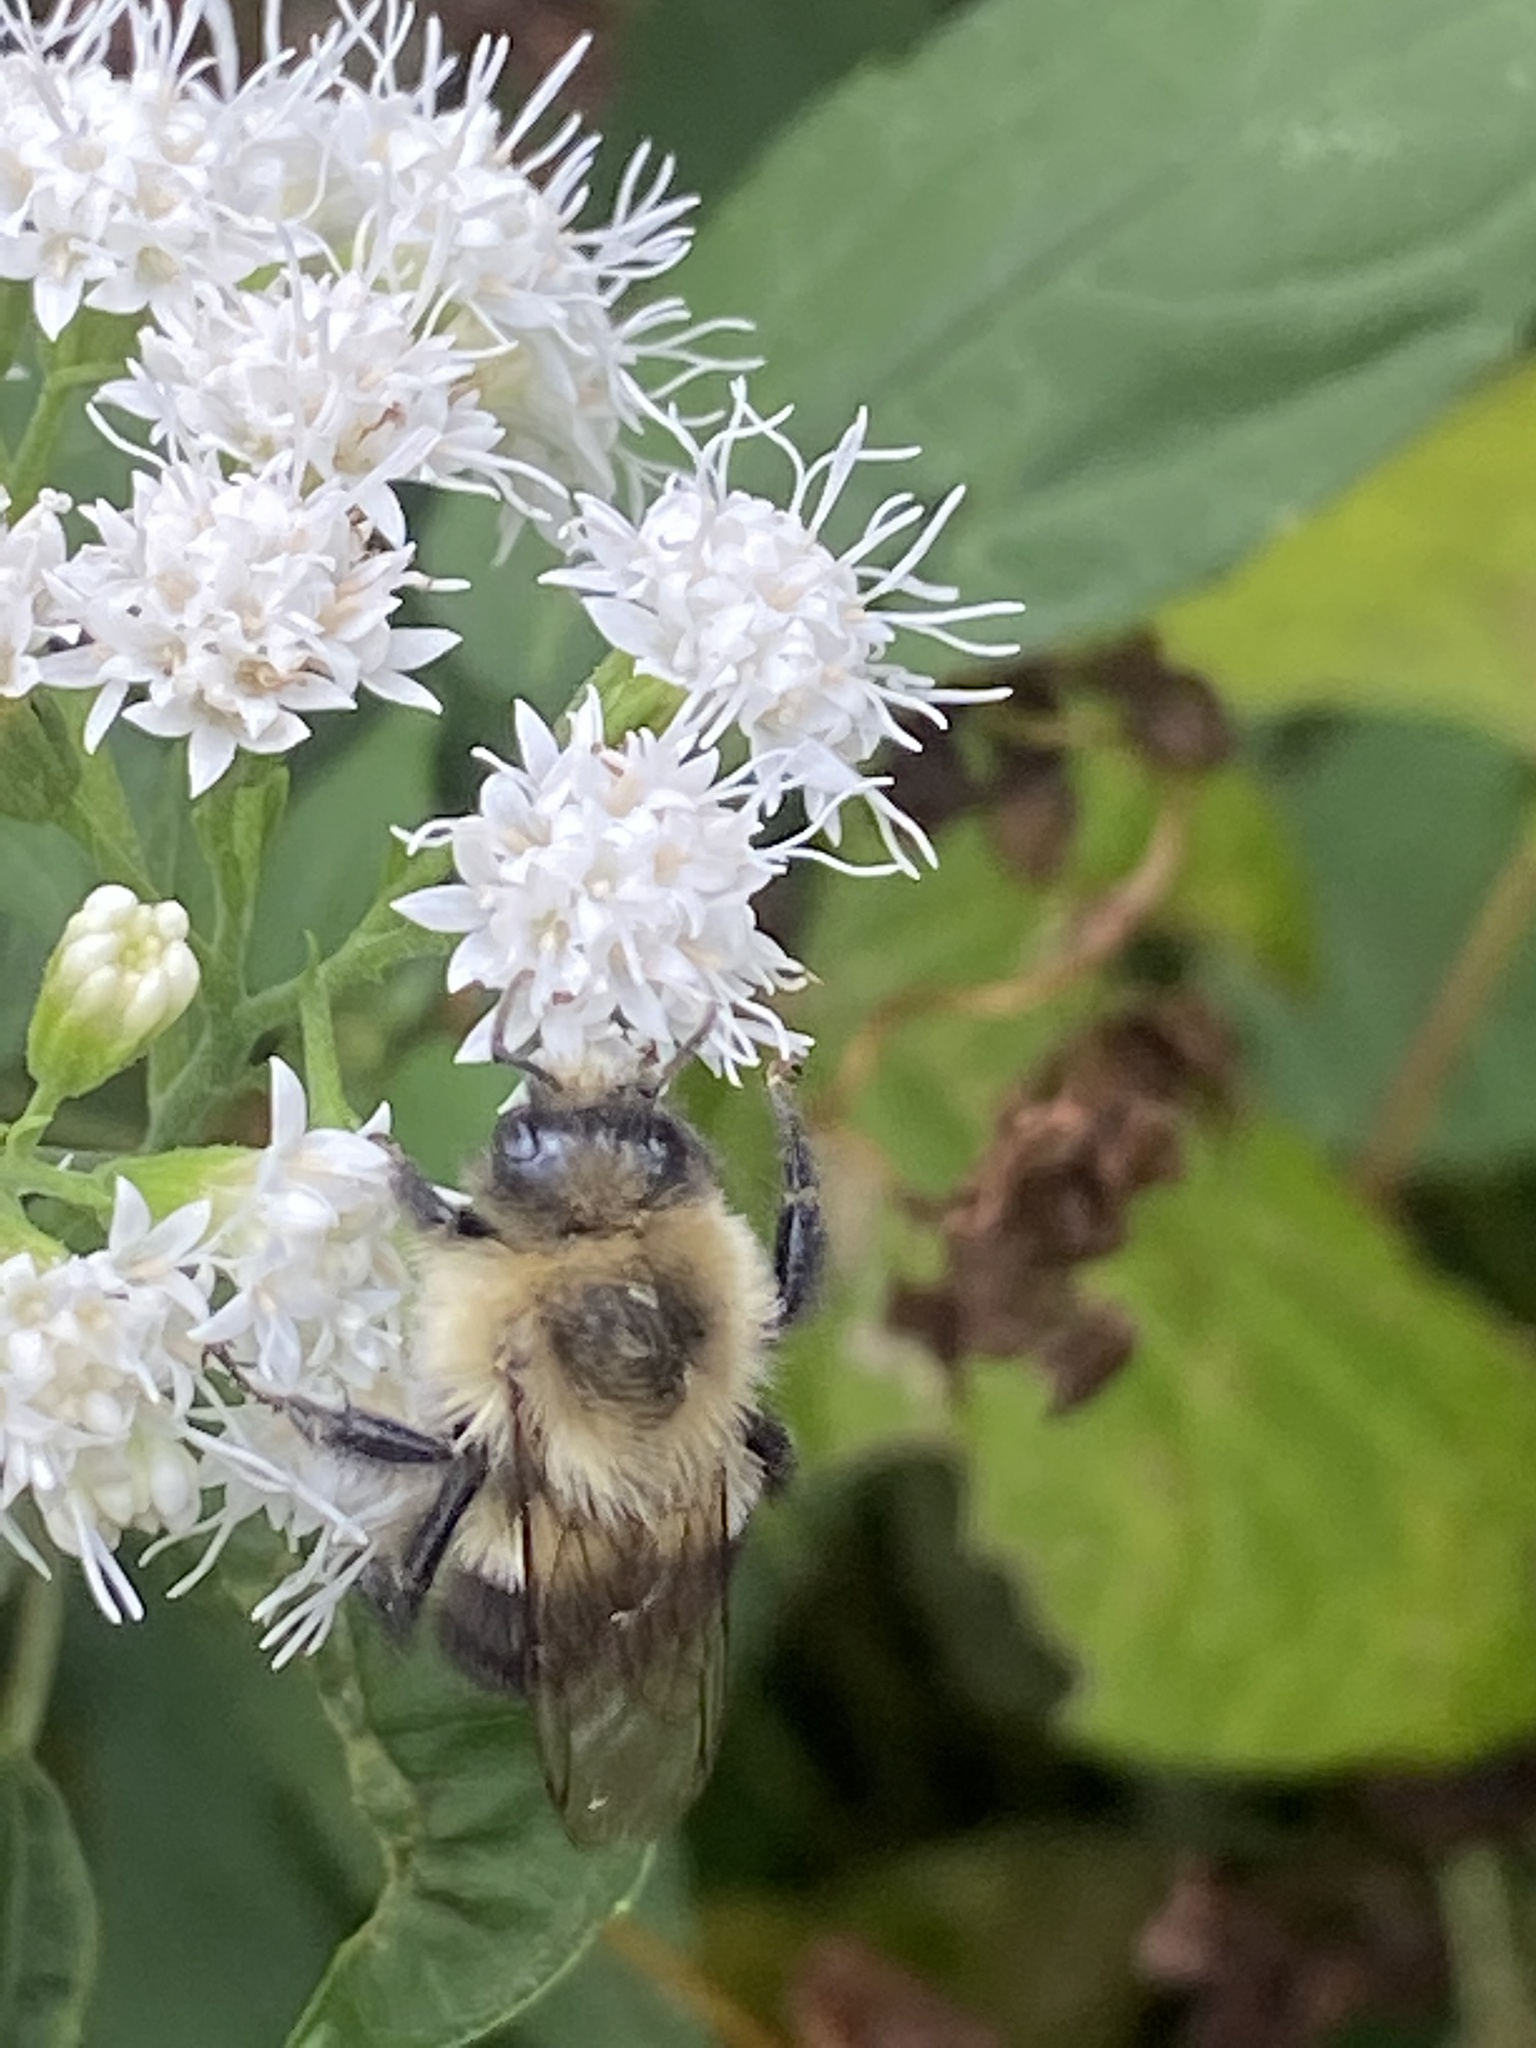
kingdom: Animalia
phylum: Arthropoda
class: Insecta
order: Hymenoptera
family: Apidae
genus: Bombus
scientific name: Bombus impatiens
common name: Common eastern bumble bee
